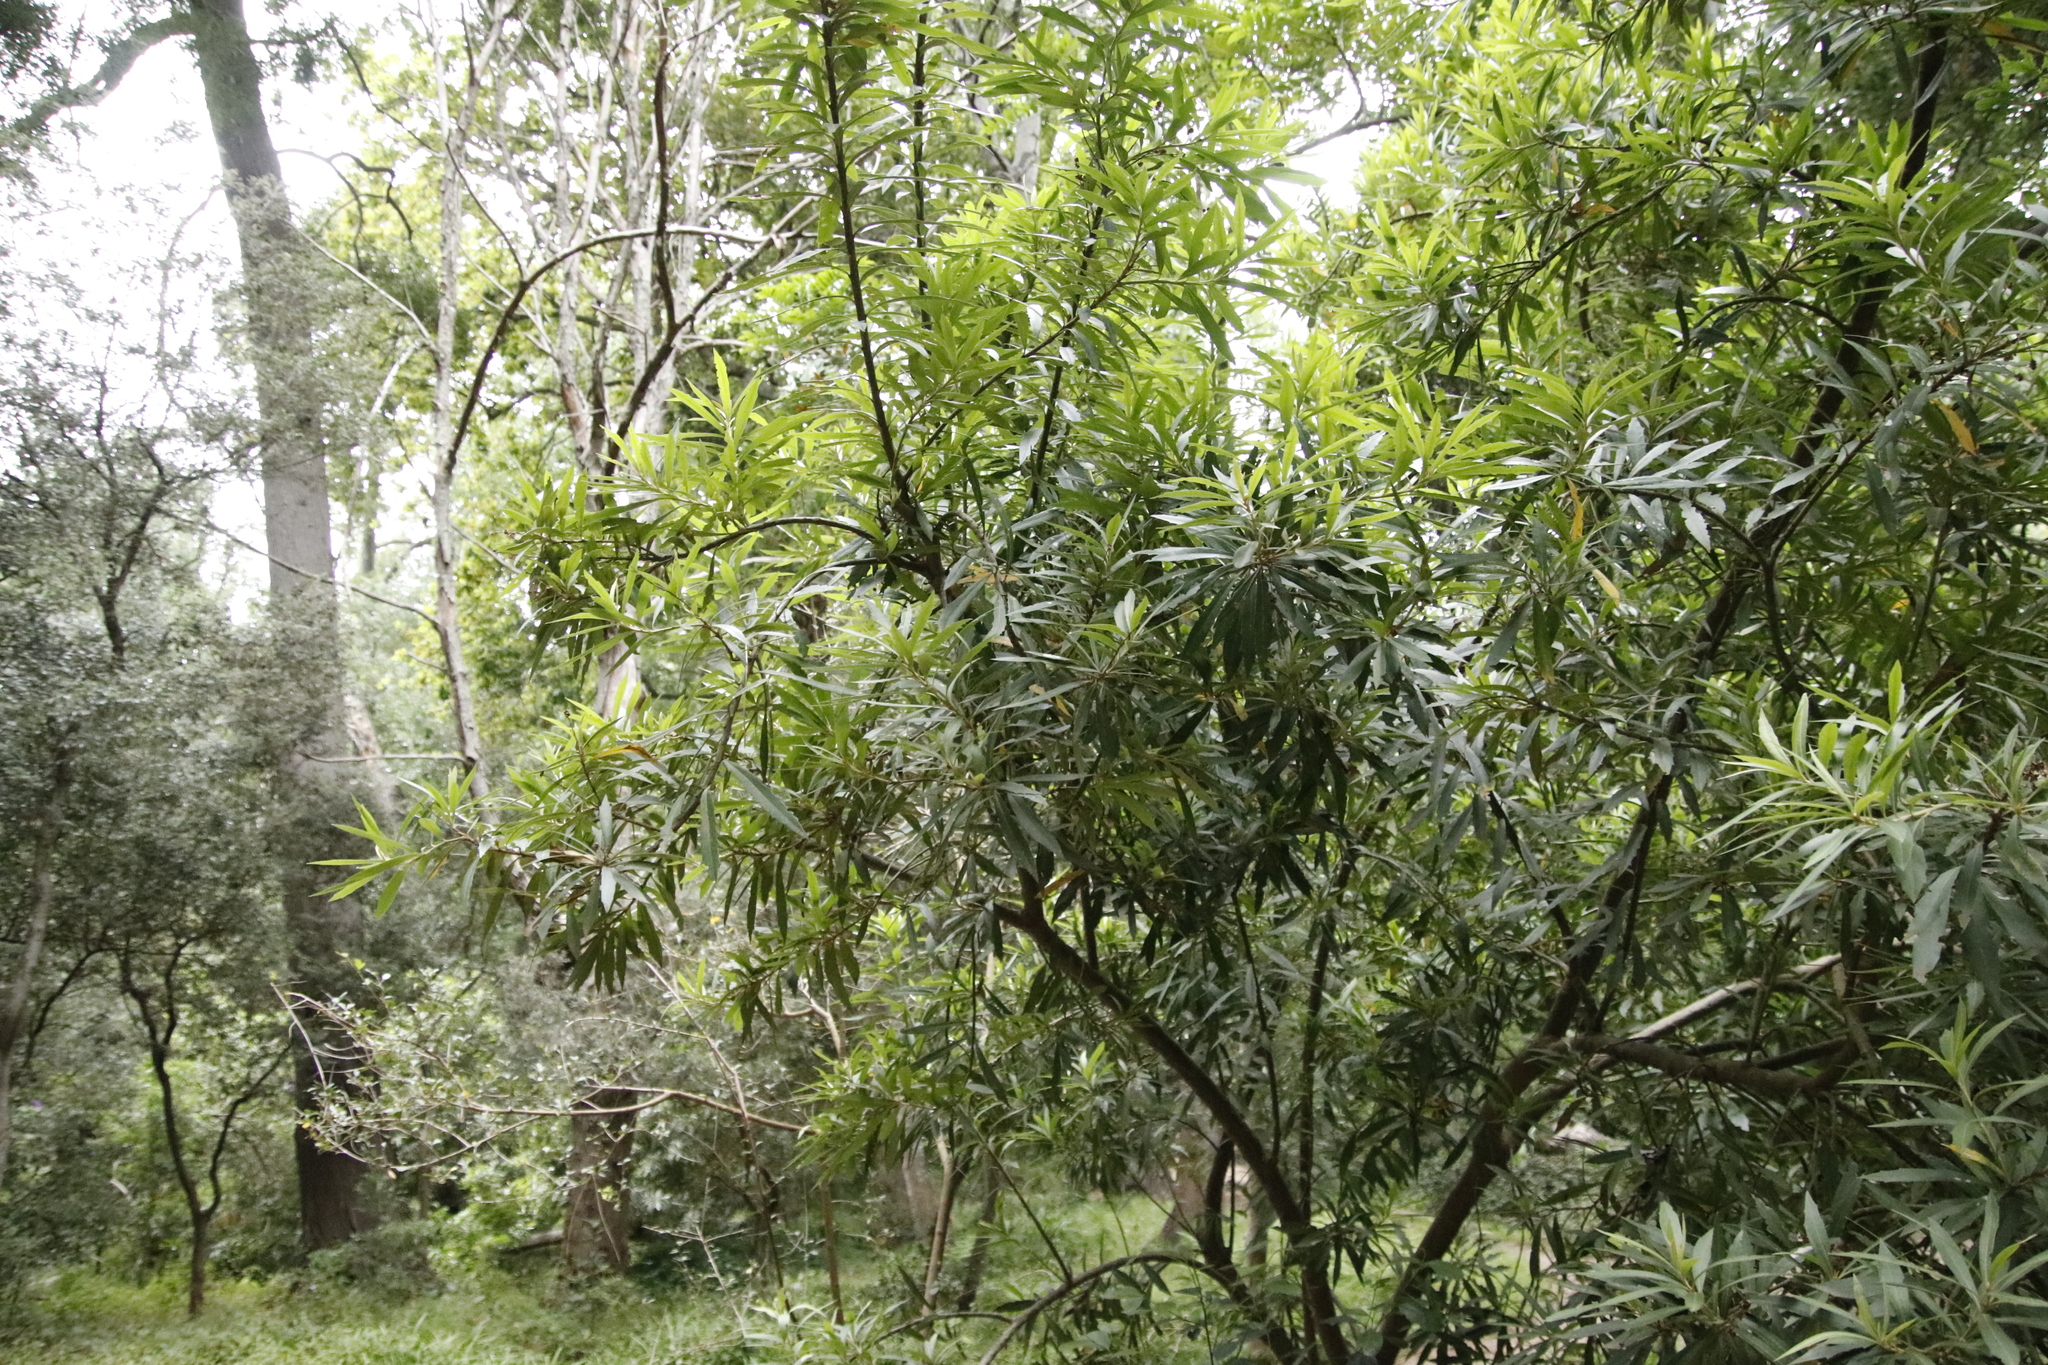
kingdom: Plantae
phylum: Tracheophyta
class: Magnoliopsida
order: Proteales
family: Proteaceae
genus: Brabejum
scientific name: Brabejum stellatifolium
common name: Wild almond
